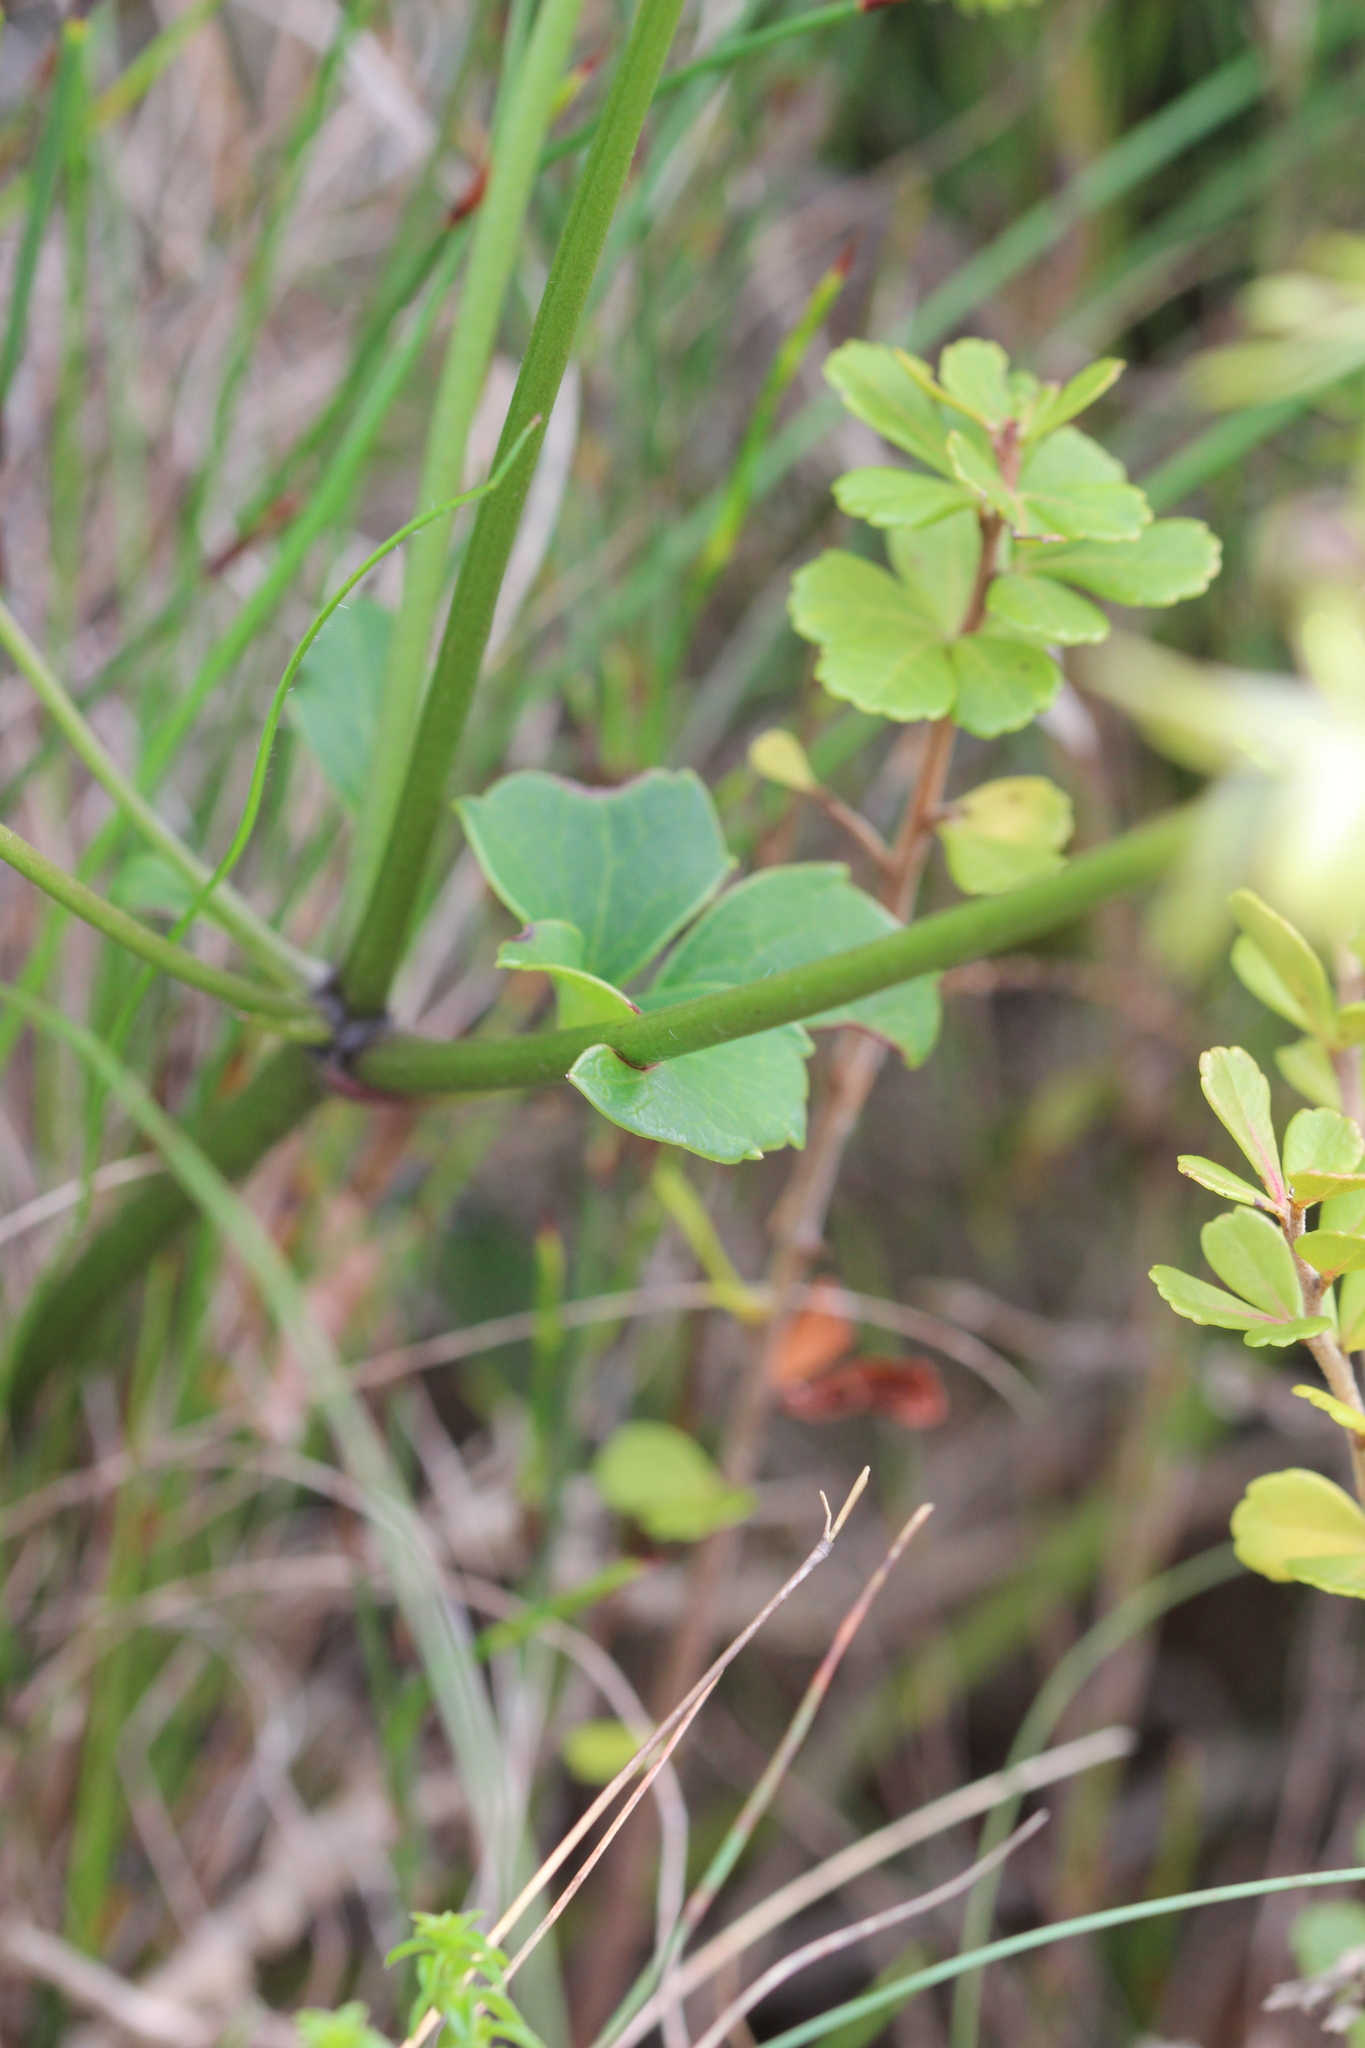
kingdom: Plantae
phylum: Tracheophyta
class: Magnoliopsida
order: Ranunculales
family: Ranunculaceae
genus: Knowltonia
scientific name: Knowltonia vesicatoria
